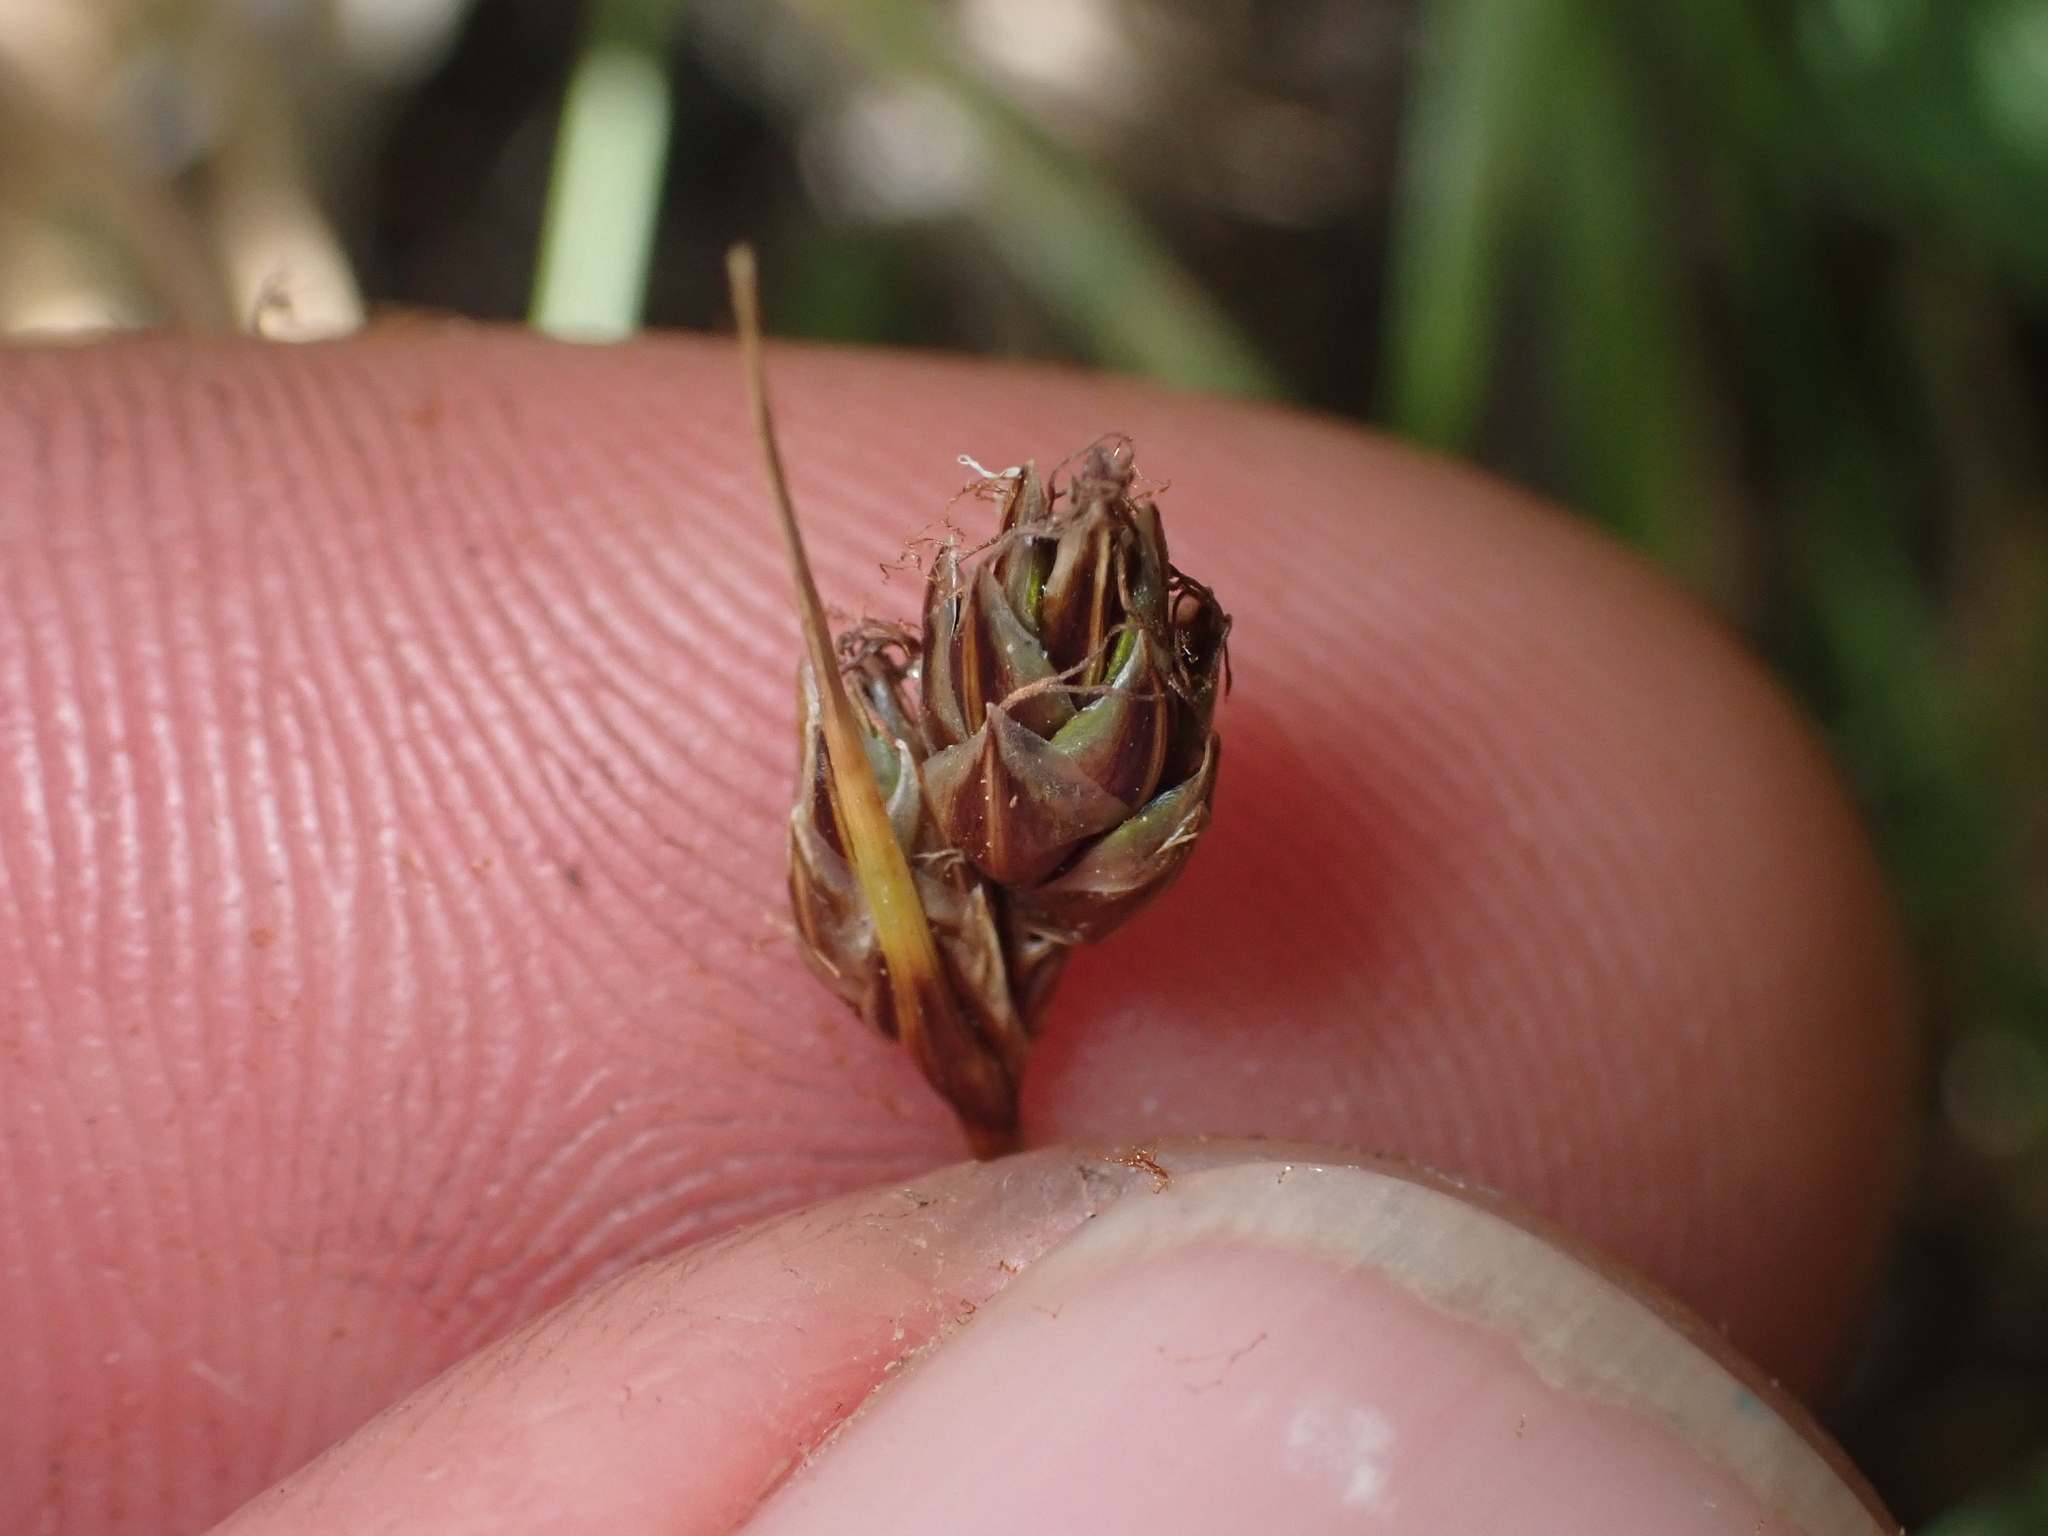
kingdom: Plantae
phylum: Tracheophyta
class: Liliopsida
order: Poales
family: Cyperaceae
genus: Carex
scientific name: Carex colensoi
